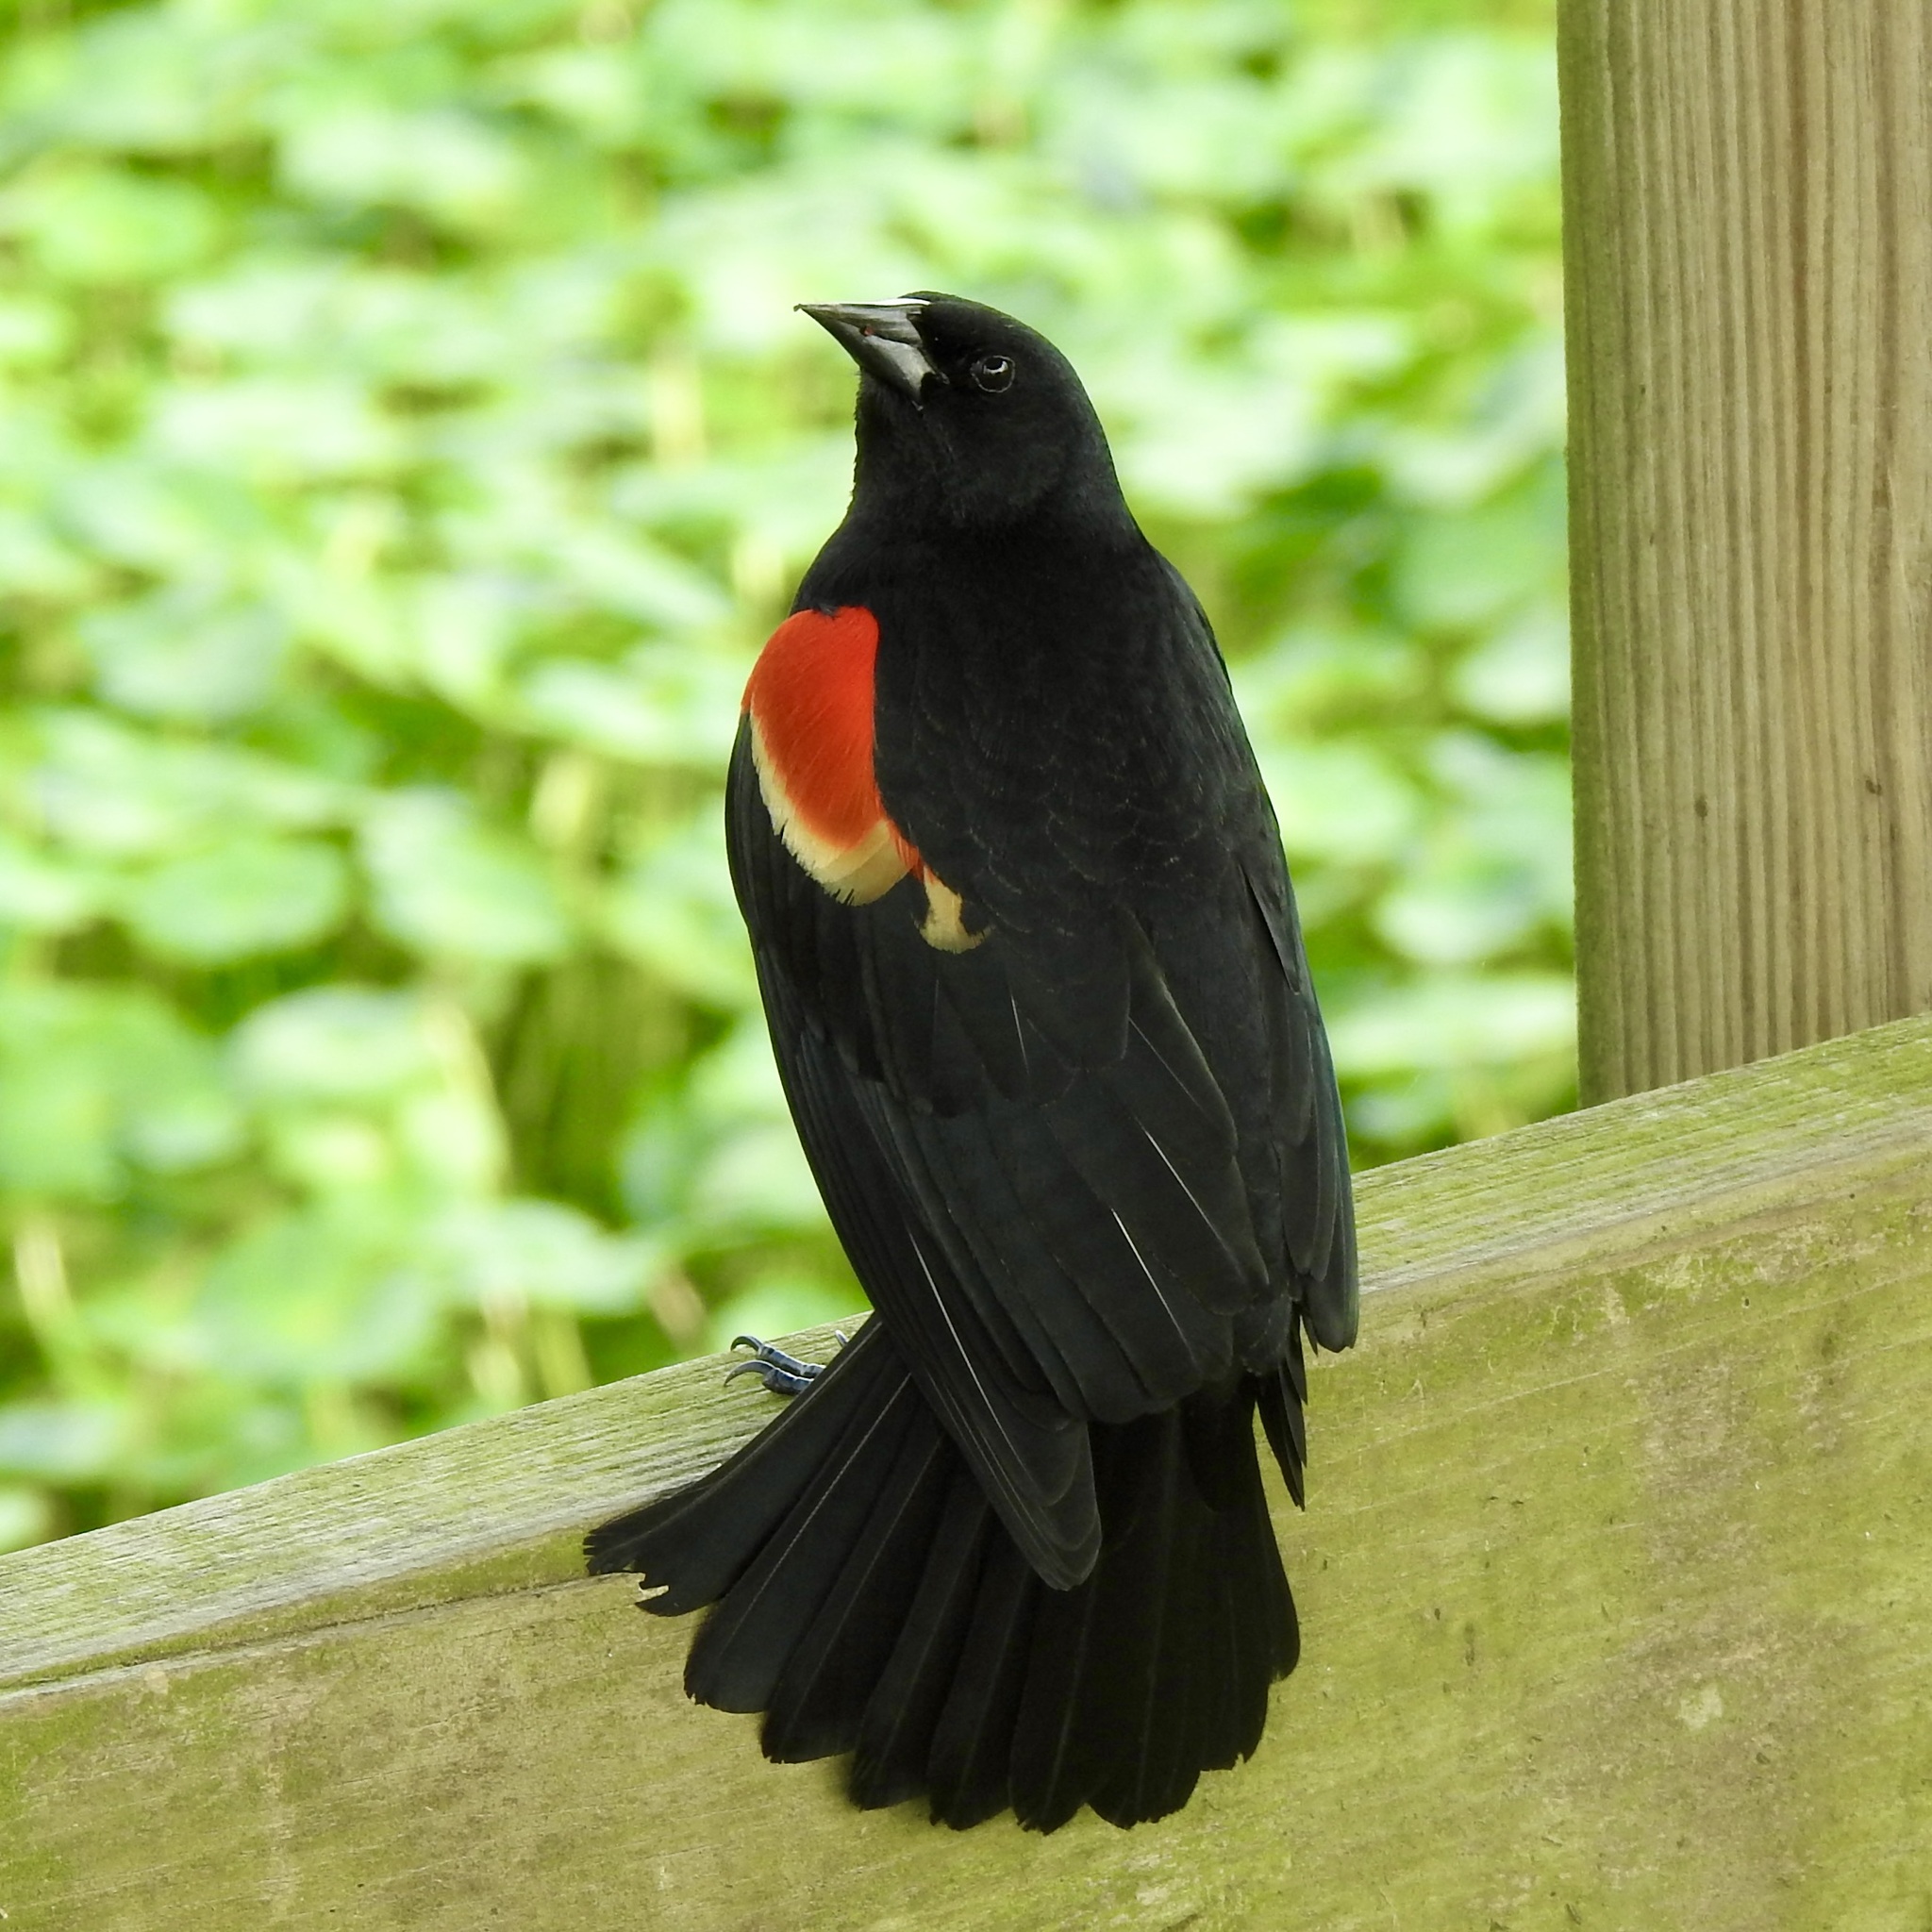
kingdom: Animalia
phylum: Chordata
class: Aves
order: Passeriformes
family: Icteridae
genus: Agelaius
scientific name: Agelaius phoeniceus
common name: Red-winged blackbird
